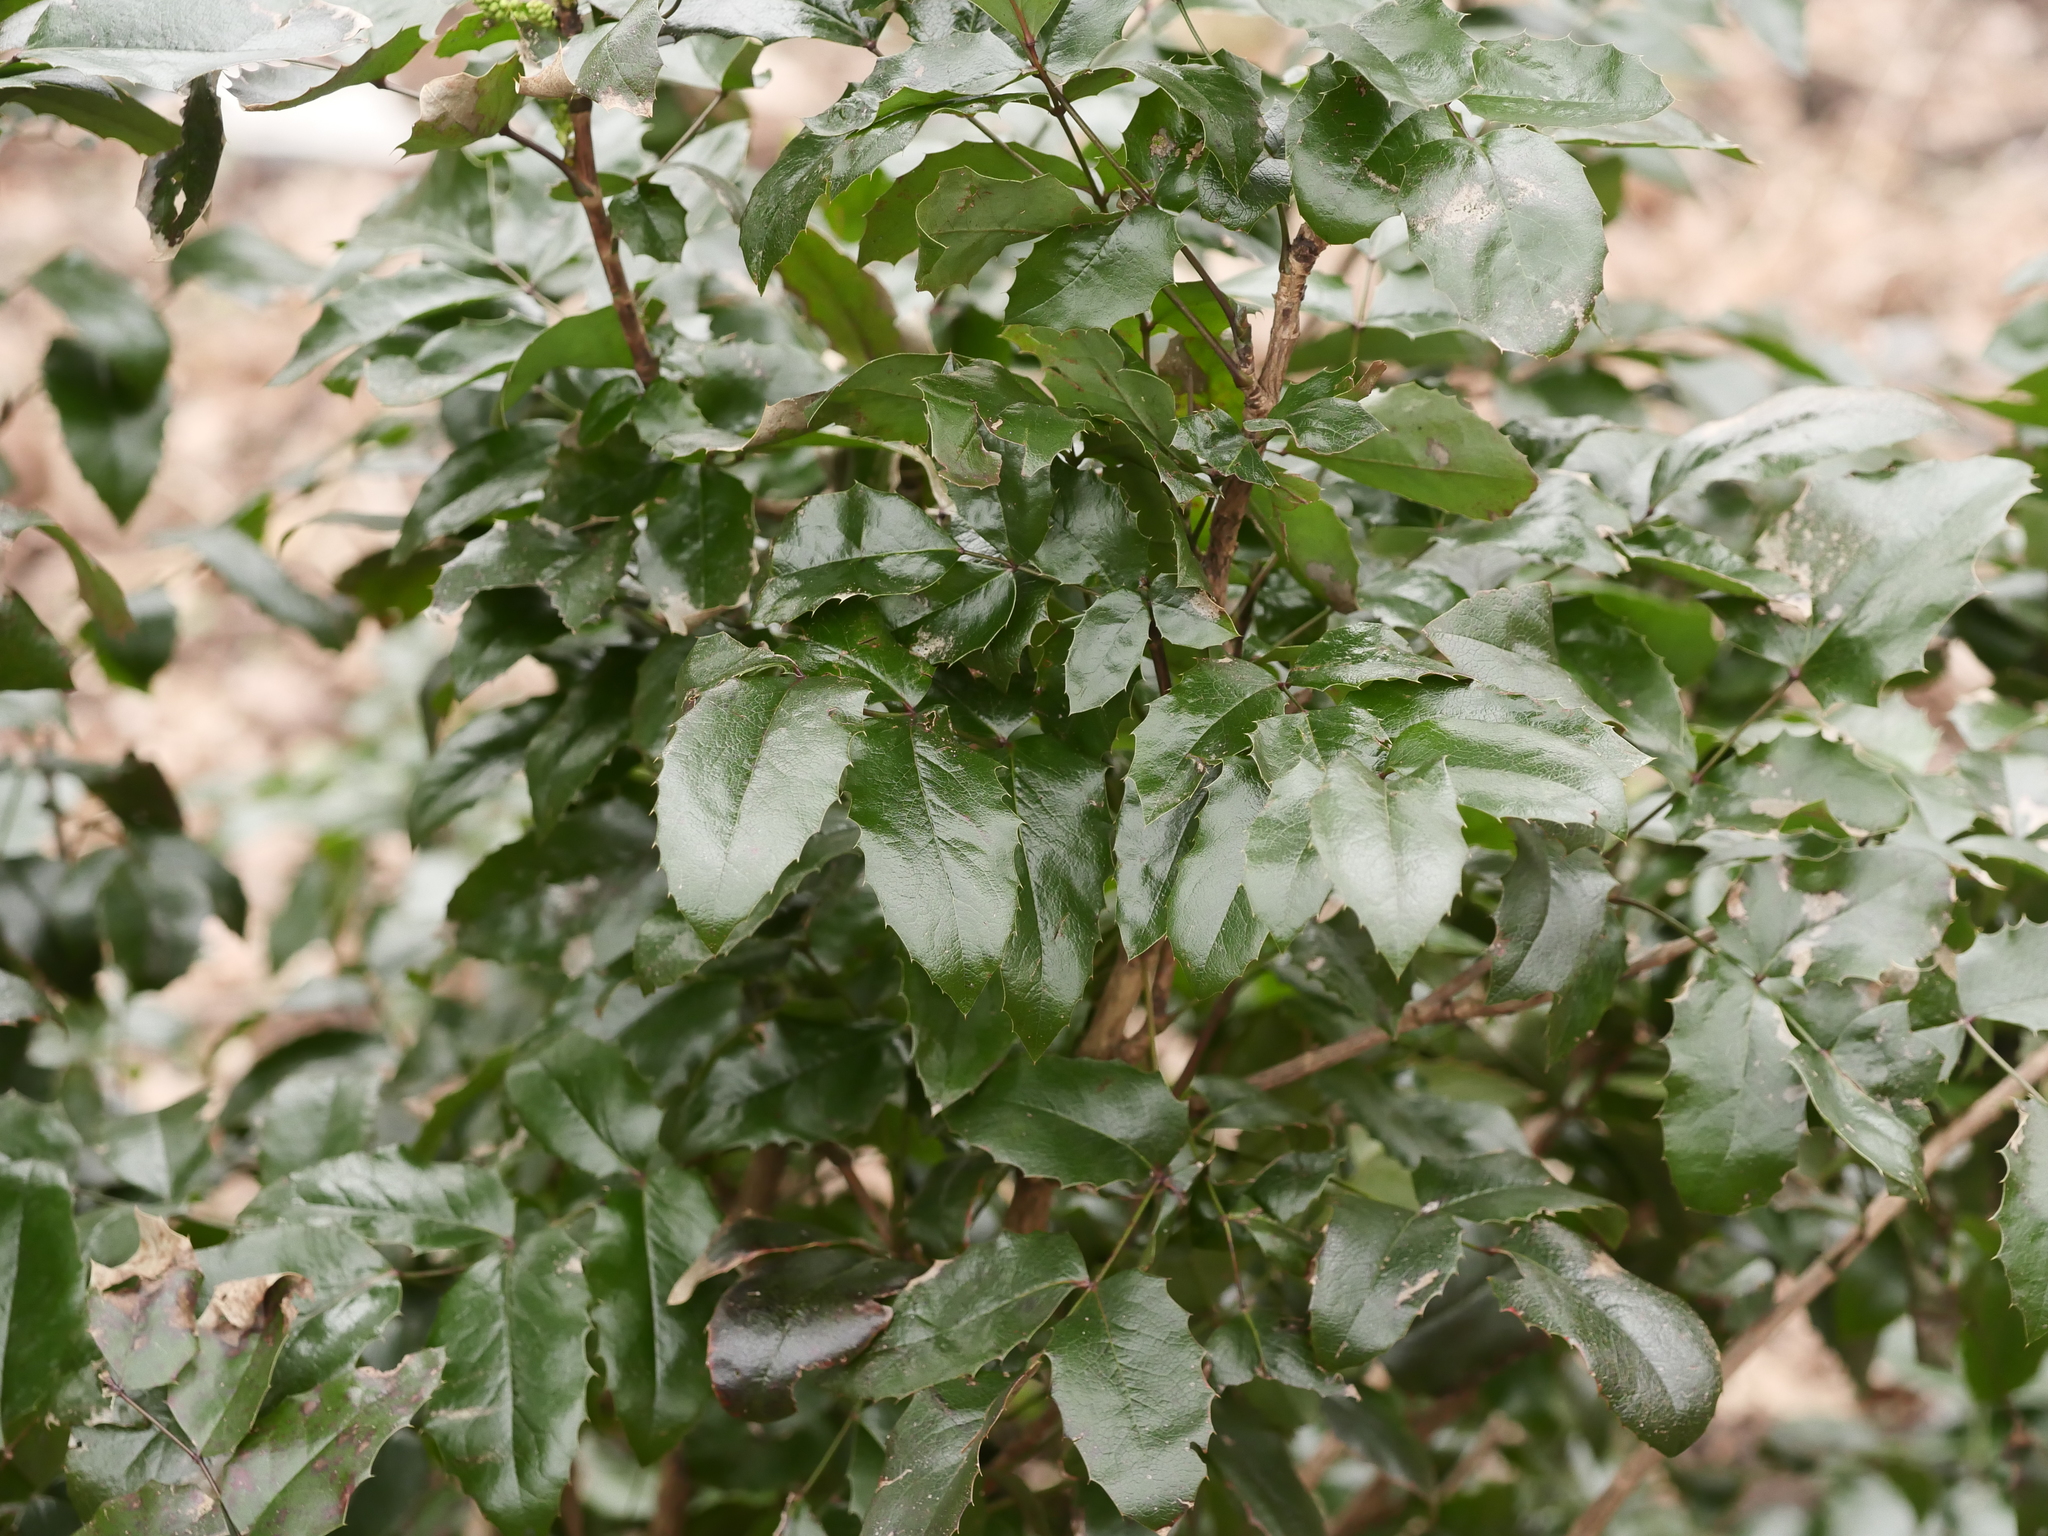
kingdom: Plantae
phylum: Tracheophyta
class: Magnoliopsida
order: Ranunculales
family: Berberidaceae
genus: Mahonia
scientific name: Mahonia aquifolium
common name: Oregon-grape
